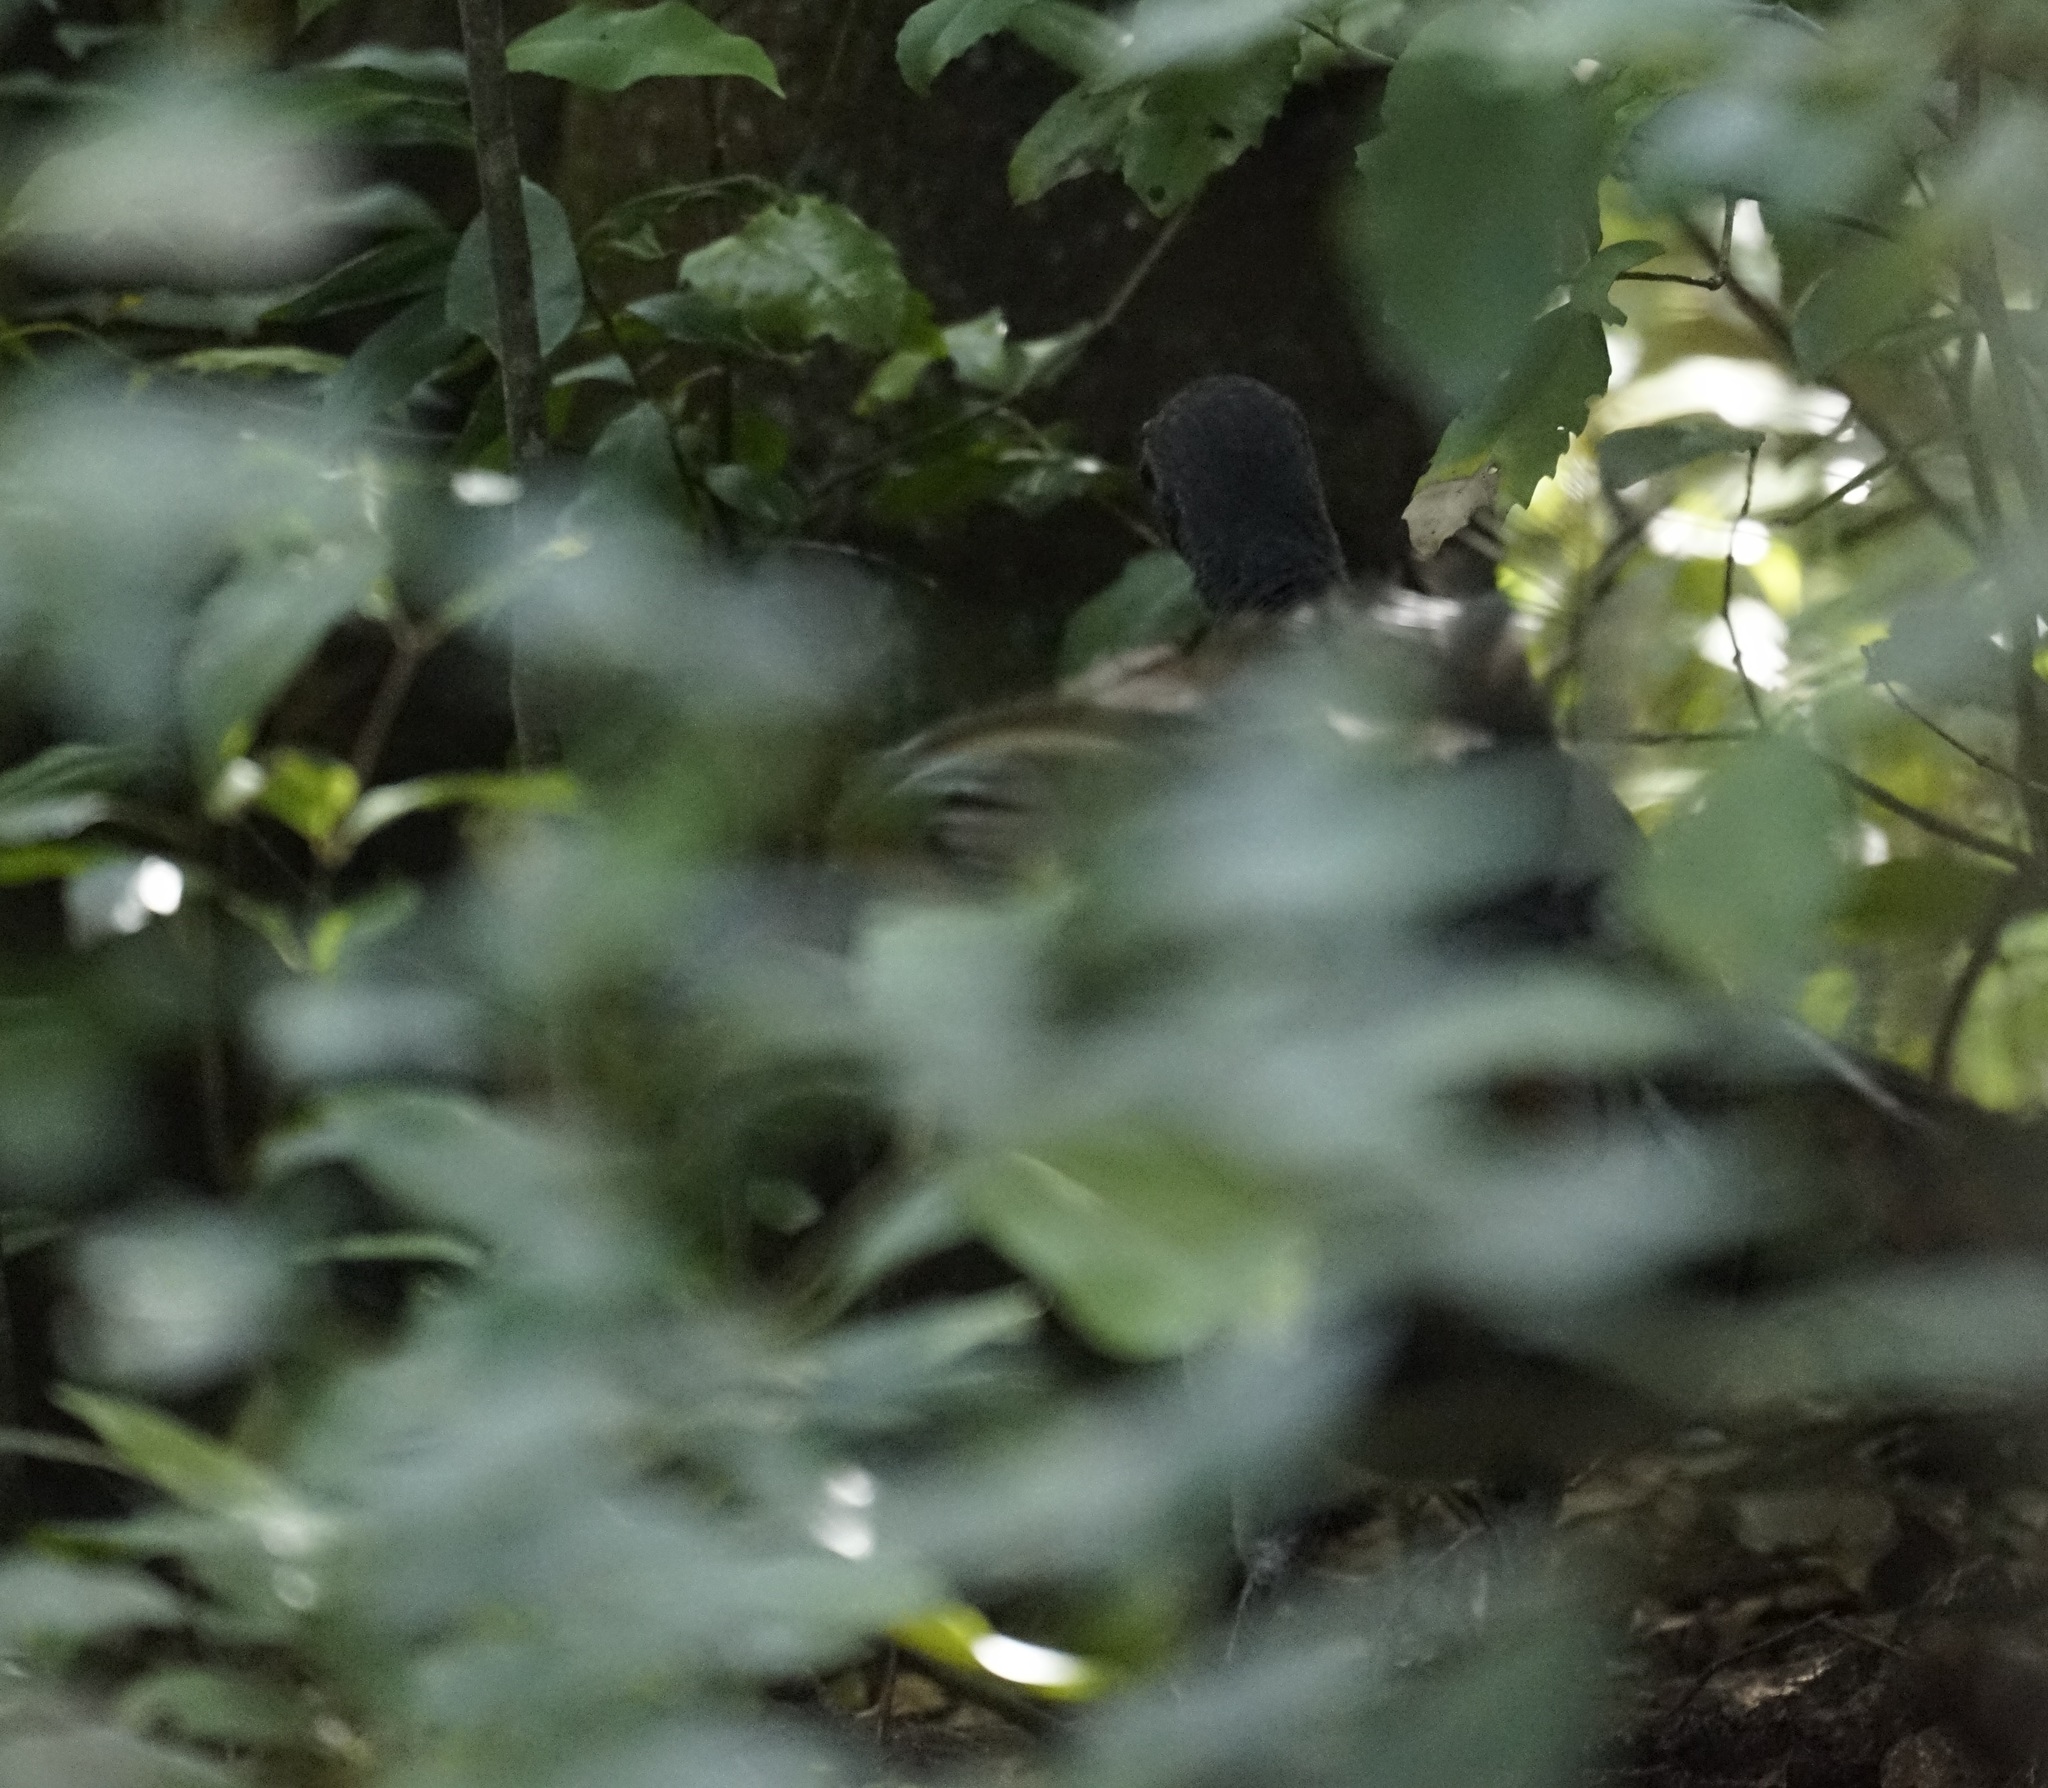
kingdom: Animalia
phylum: Chordata
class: Aves
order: Passeriformes
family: Menuridae
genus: Menura
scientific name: Menura novaehollandiae
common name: Superb lyrebird
